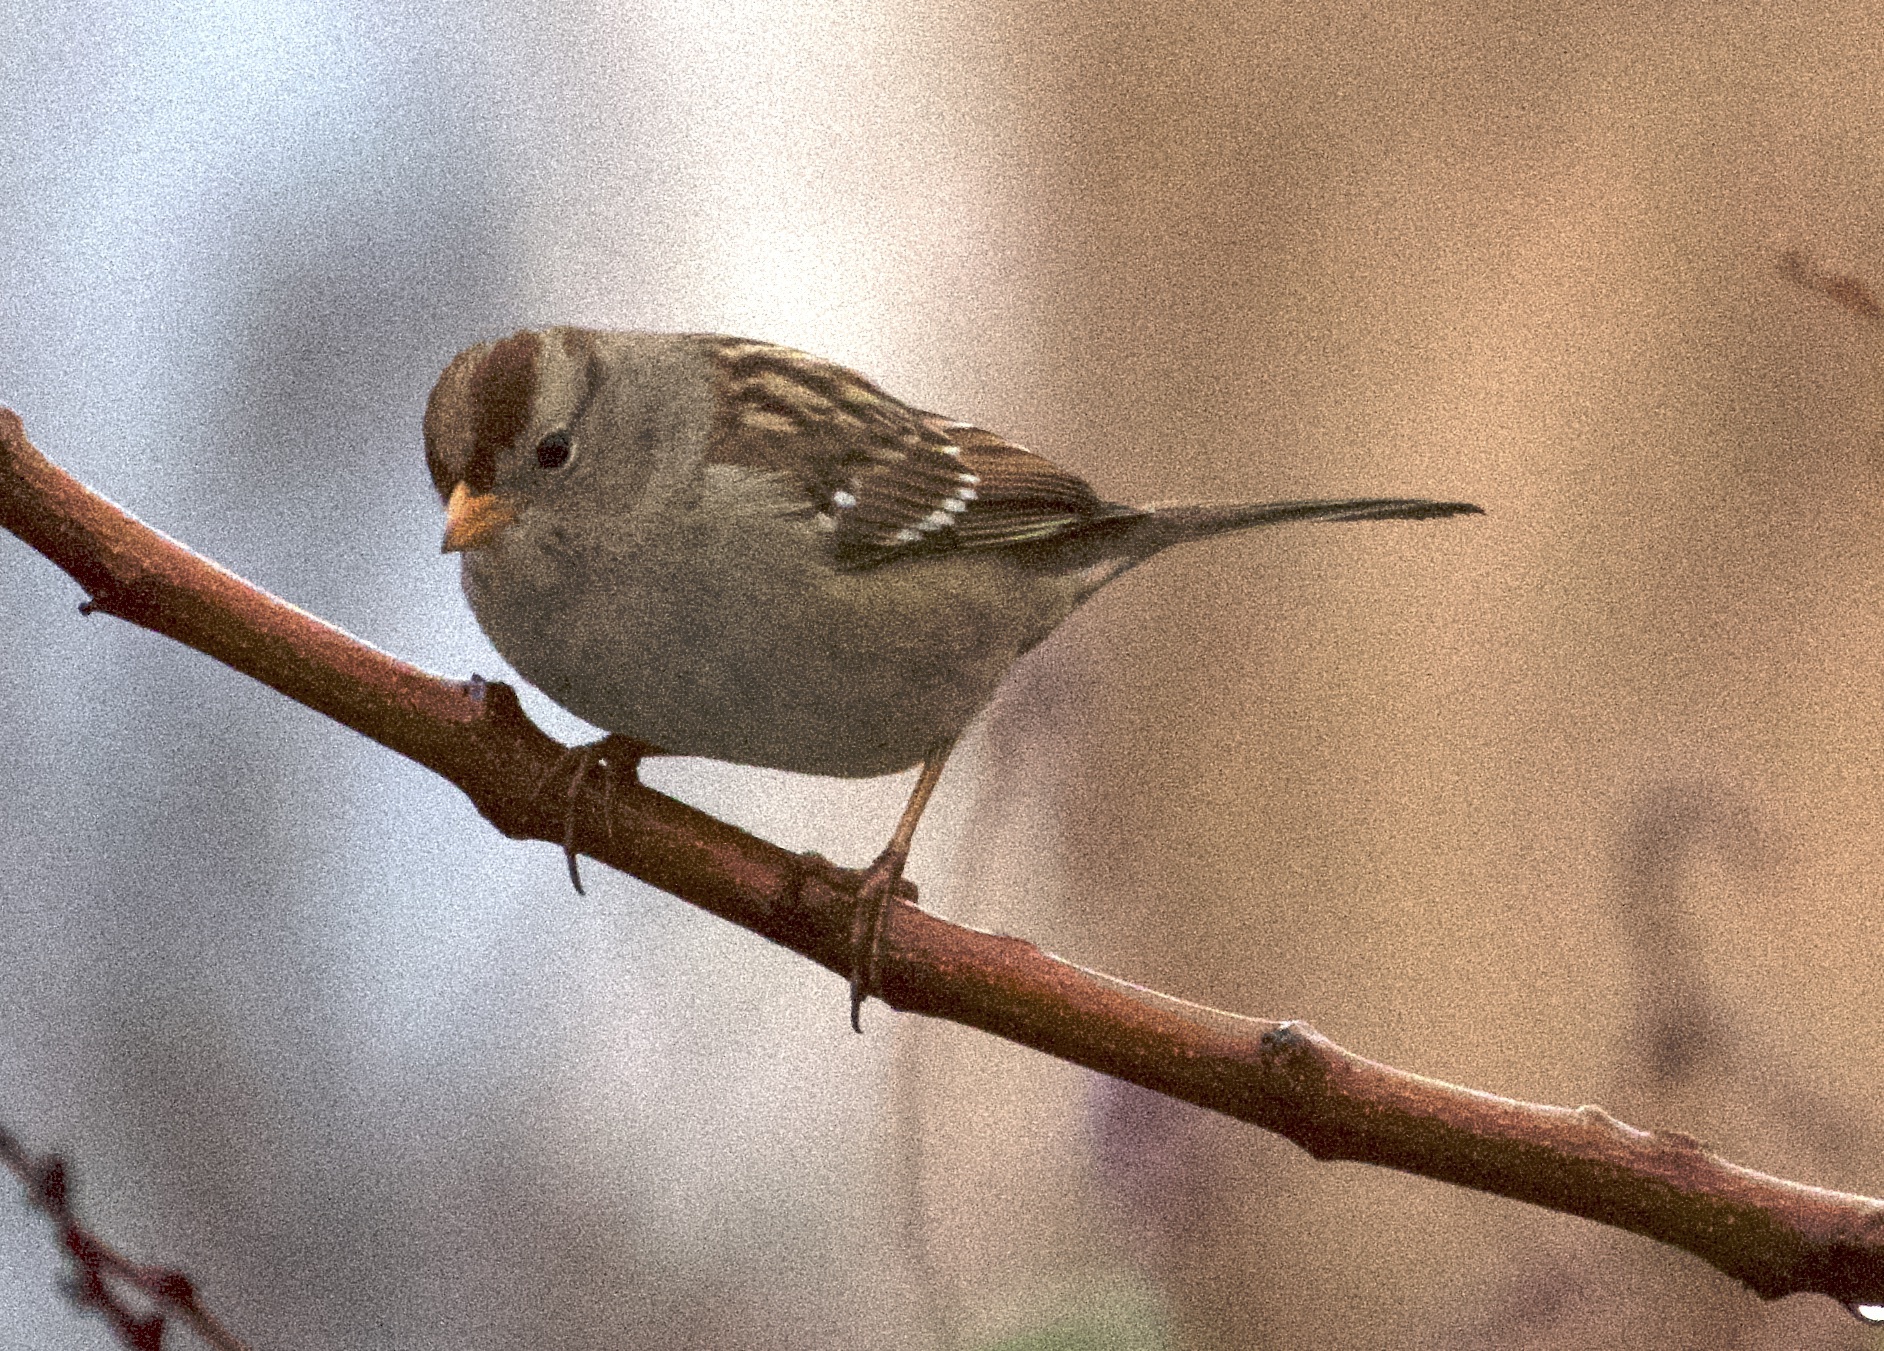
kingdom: Animalia
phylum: Chordata
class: Aves
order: Passeriformes
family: Passerellidae
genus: Zonotrichia
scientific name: Zonotrichia leucophrys
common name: White-crowned sparrow
